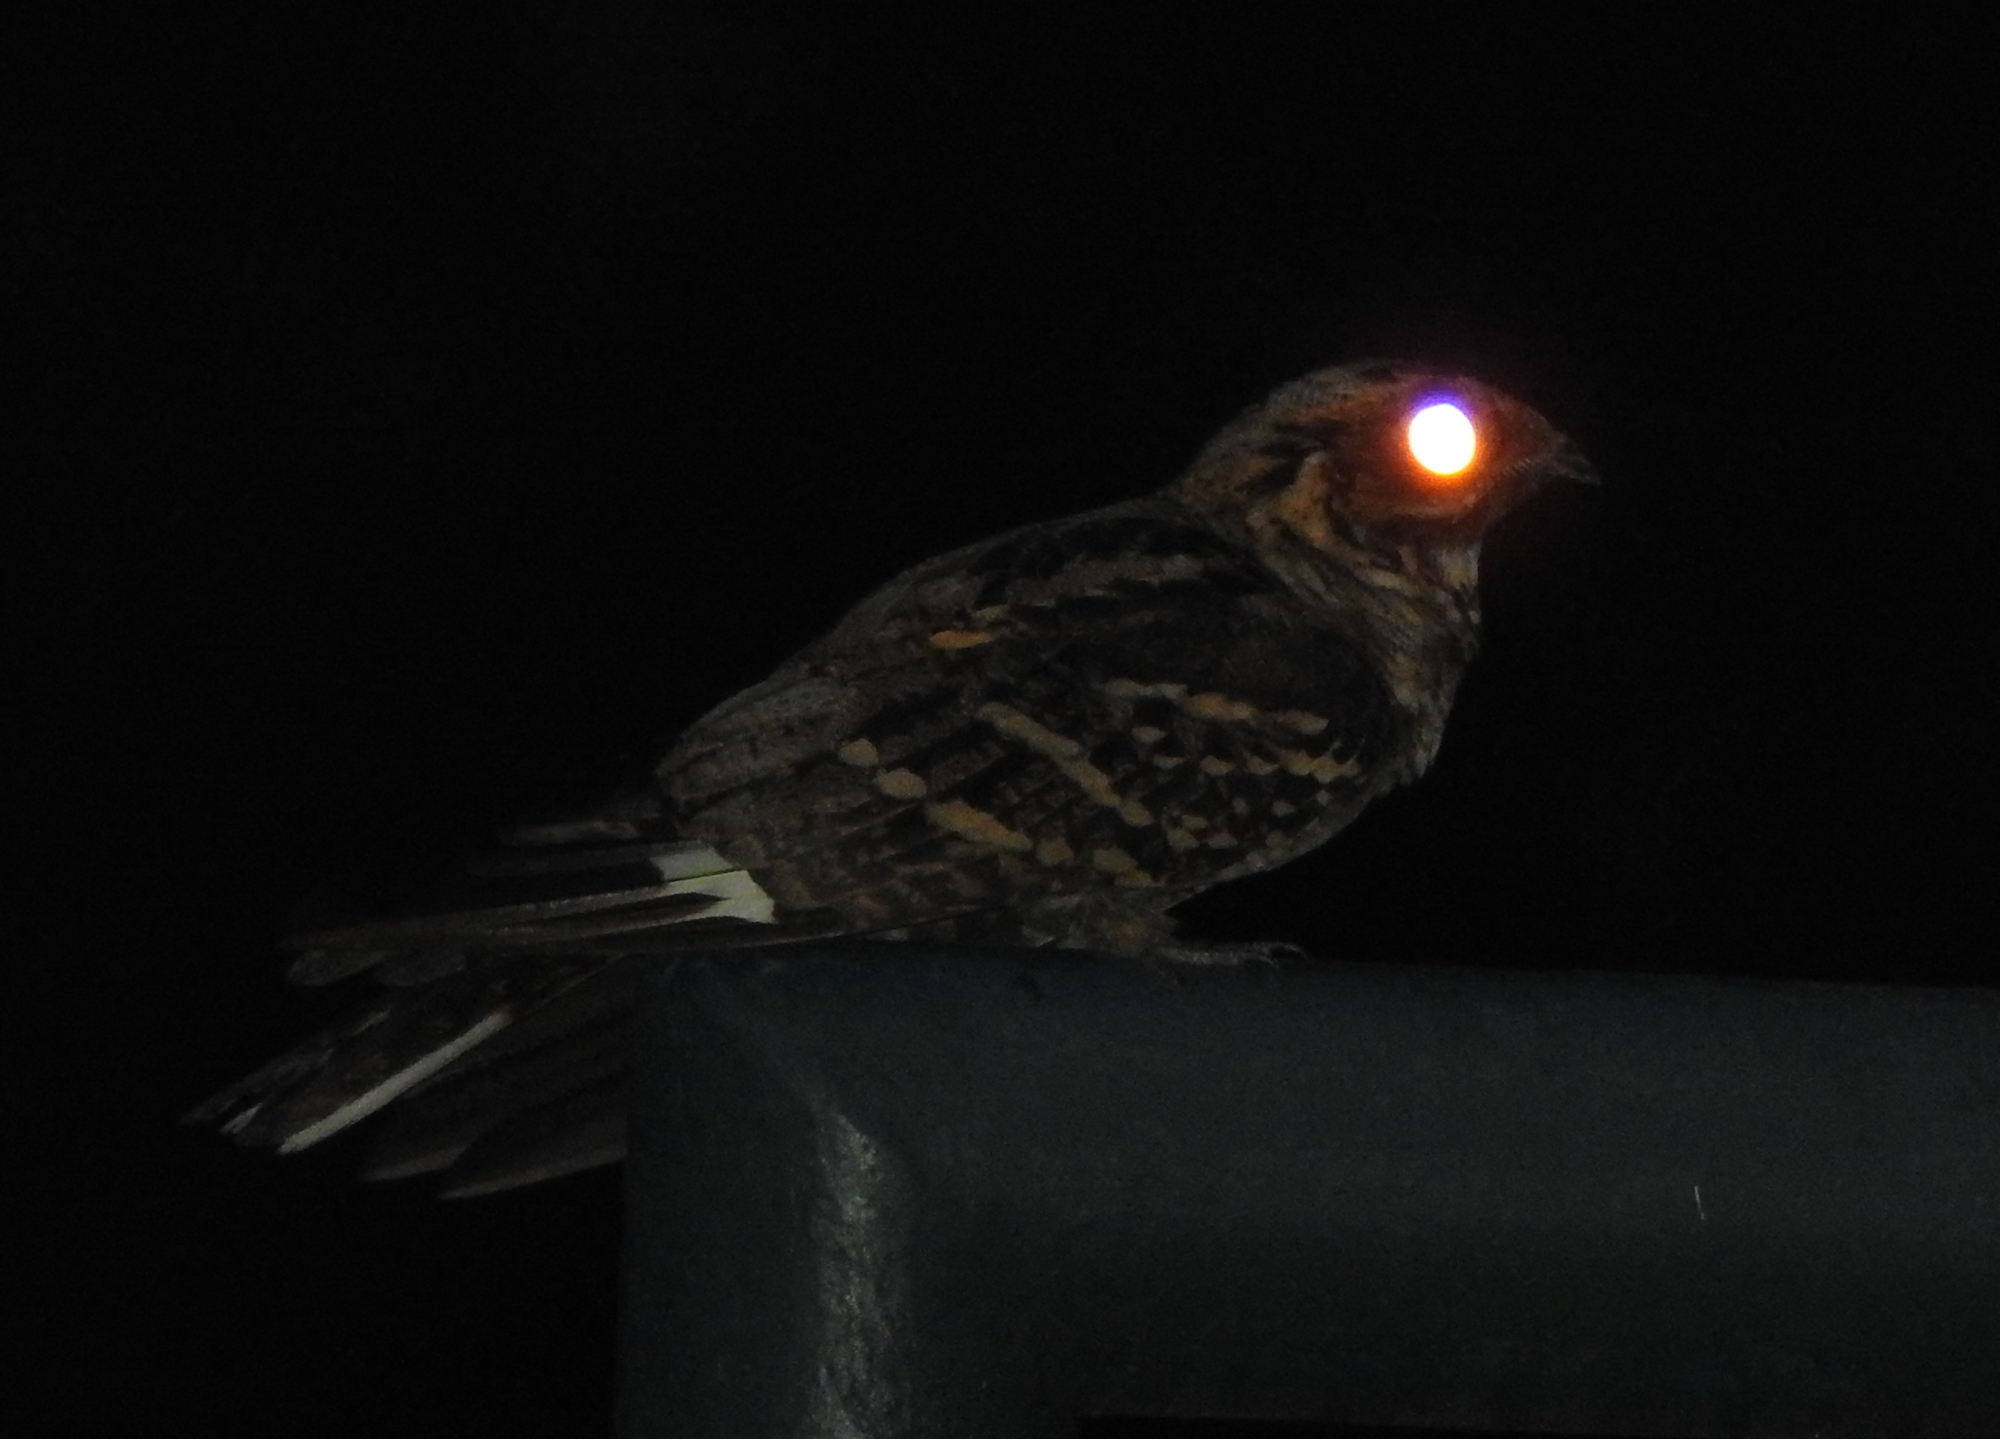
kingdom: Animalia
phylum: Chordata
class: Aves
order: Caprimulgiformes
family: Caprimulgidae
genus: Caprimulgus
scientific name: Caprimulgus macrurus
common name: Large-tailed nightjar
